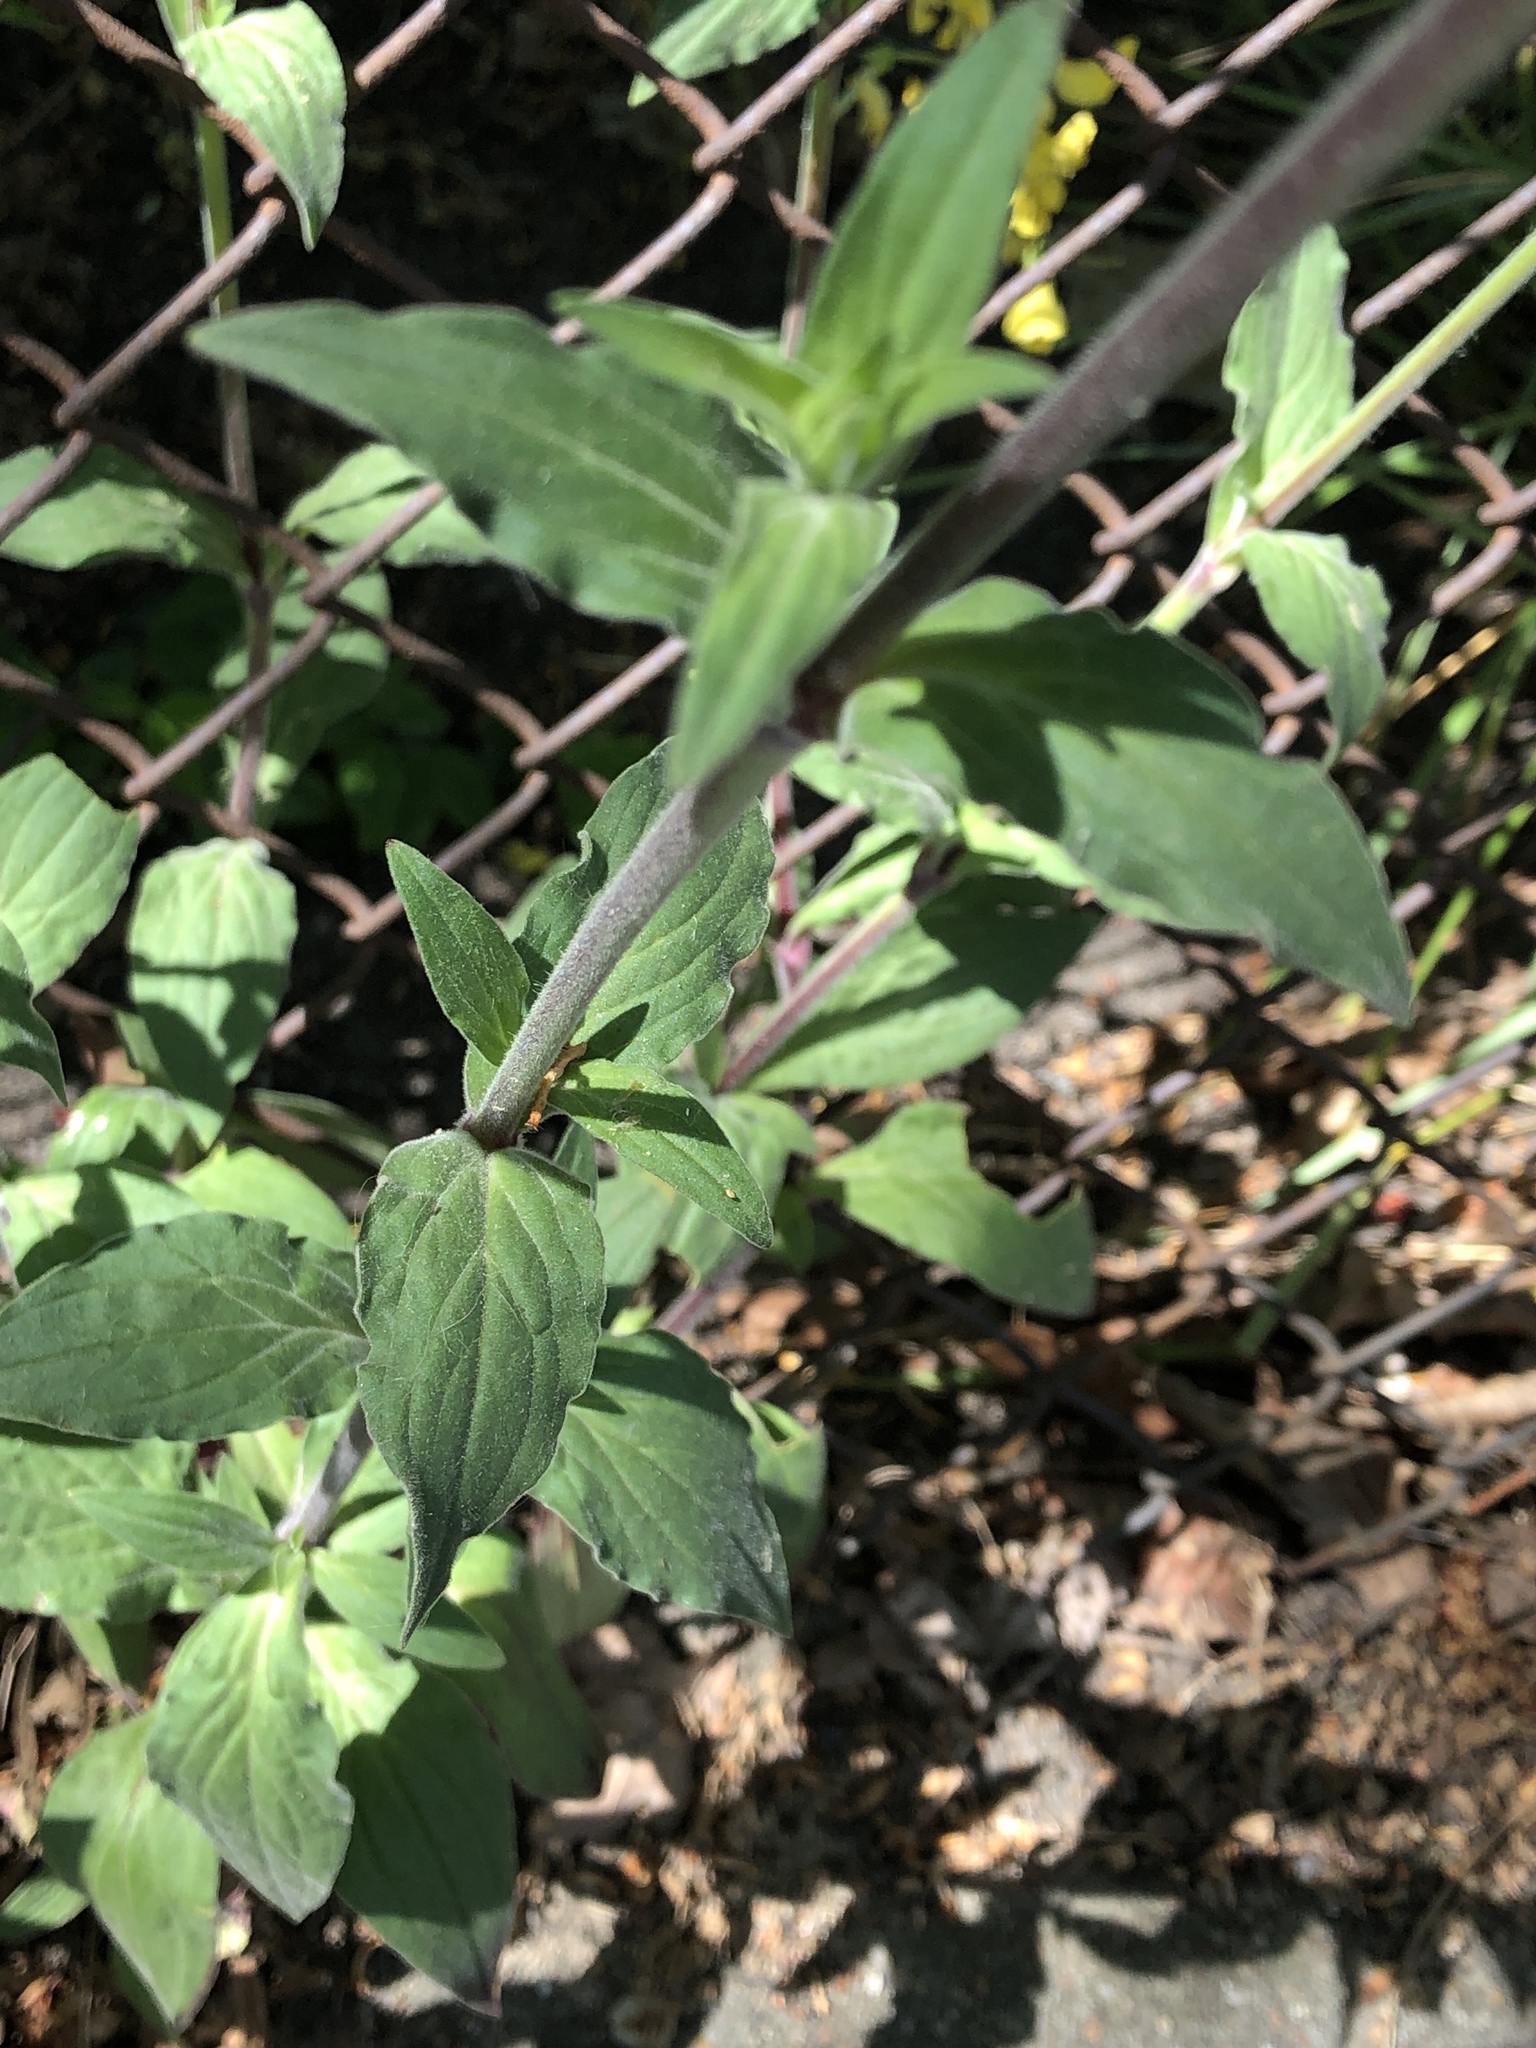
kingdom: Plantae
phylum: Tracheophyta
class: Magnoliopsida
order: Caryophyllales
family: Caryophyllaceae
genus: Silene
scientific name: Silene latifolia
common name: White campion
